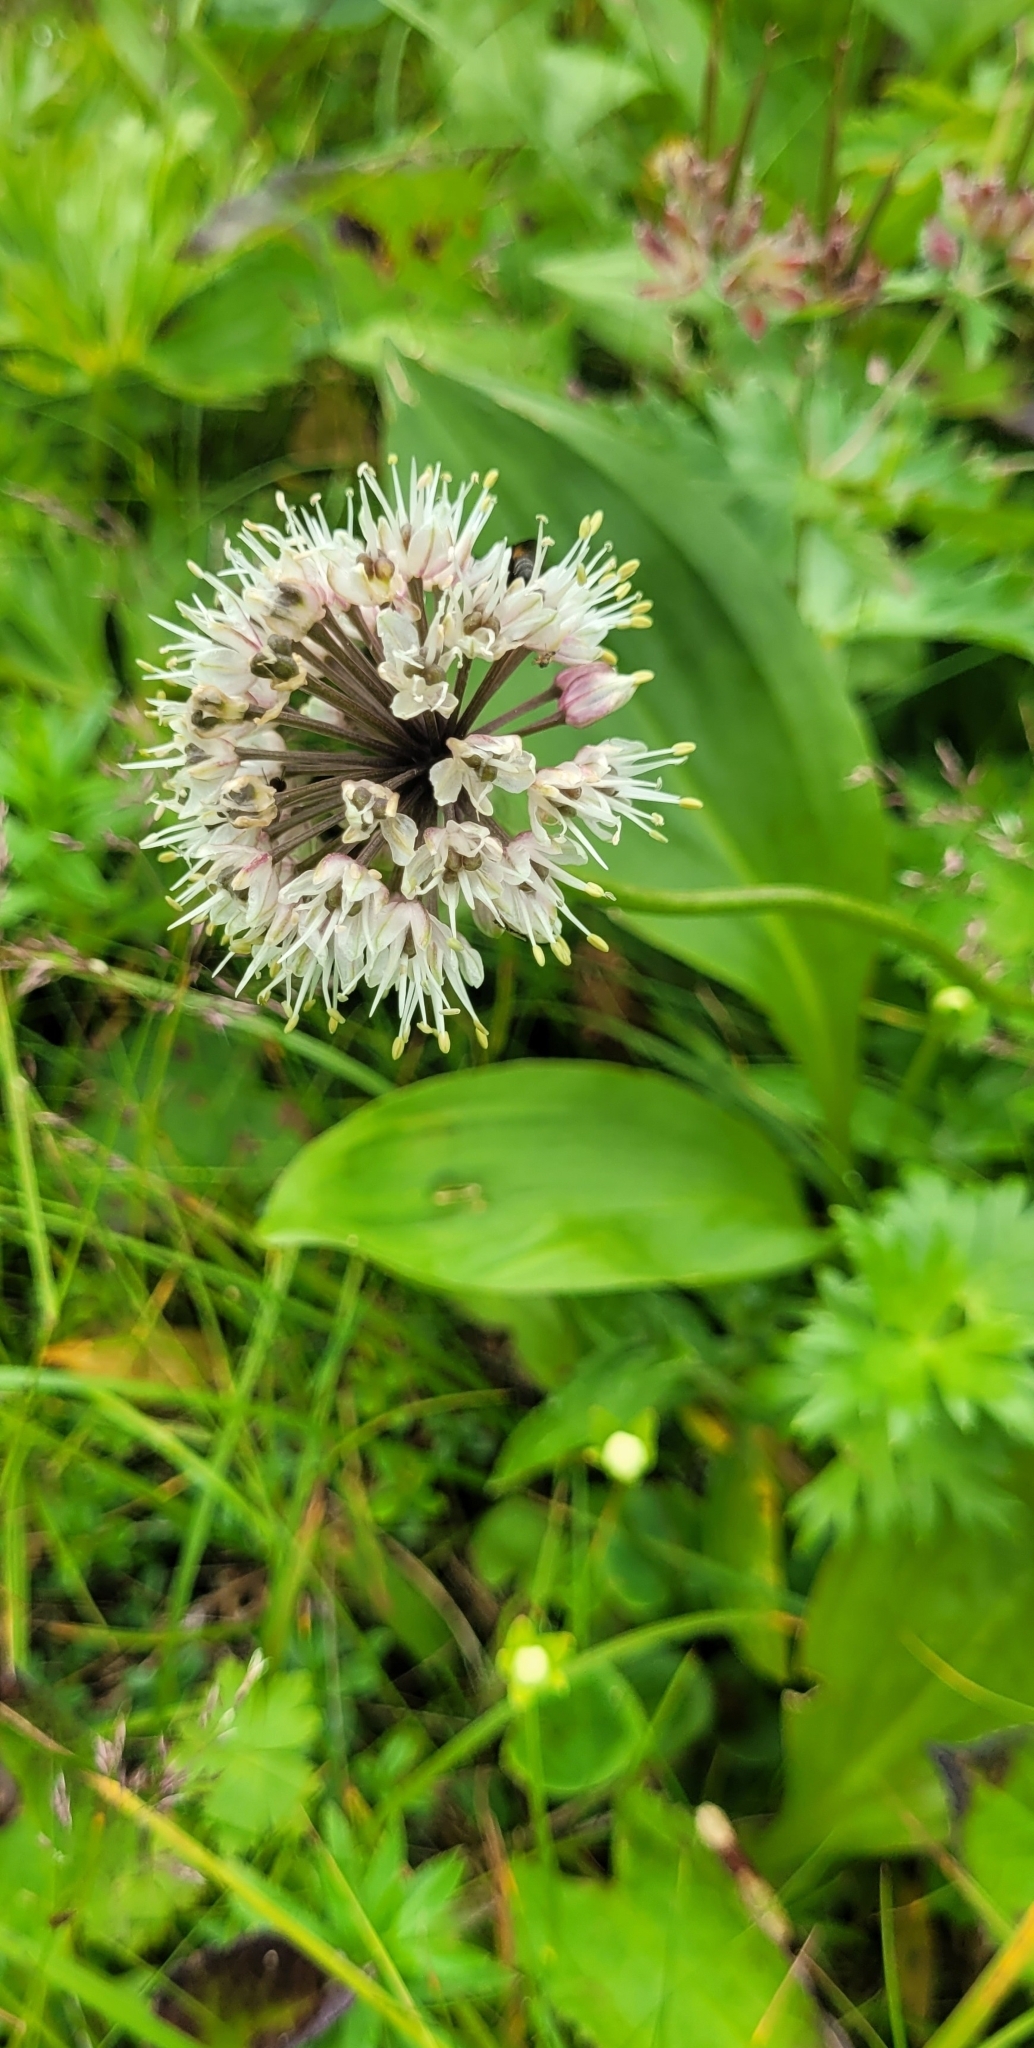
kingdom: Plantae
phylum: Tracheophyta
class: Liliopsida
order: Asparagales
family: Amaryllidaceae
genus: Allium
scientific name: Allium ochotense
